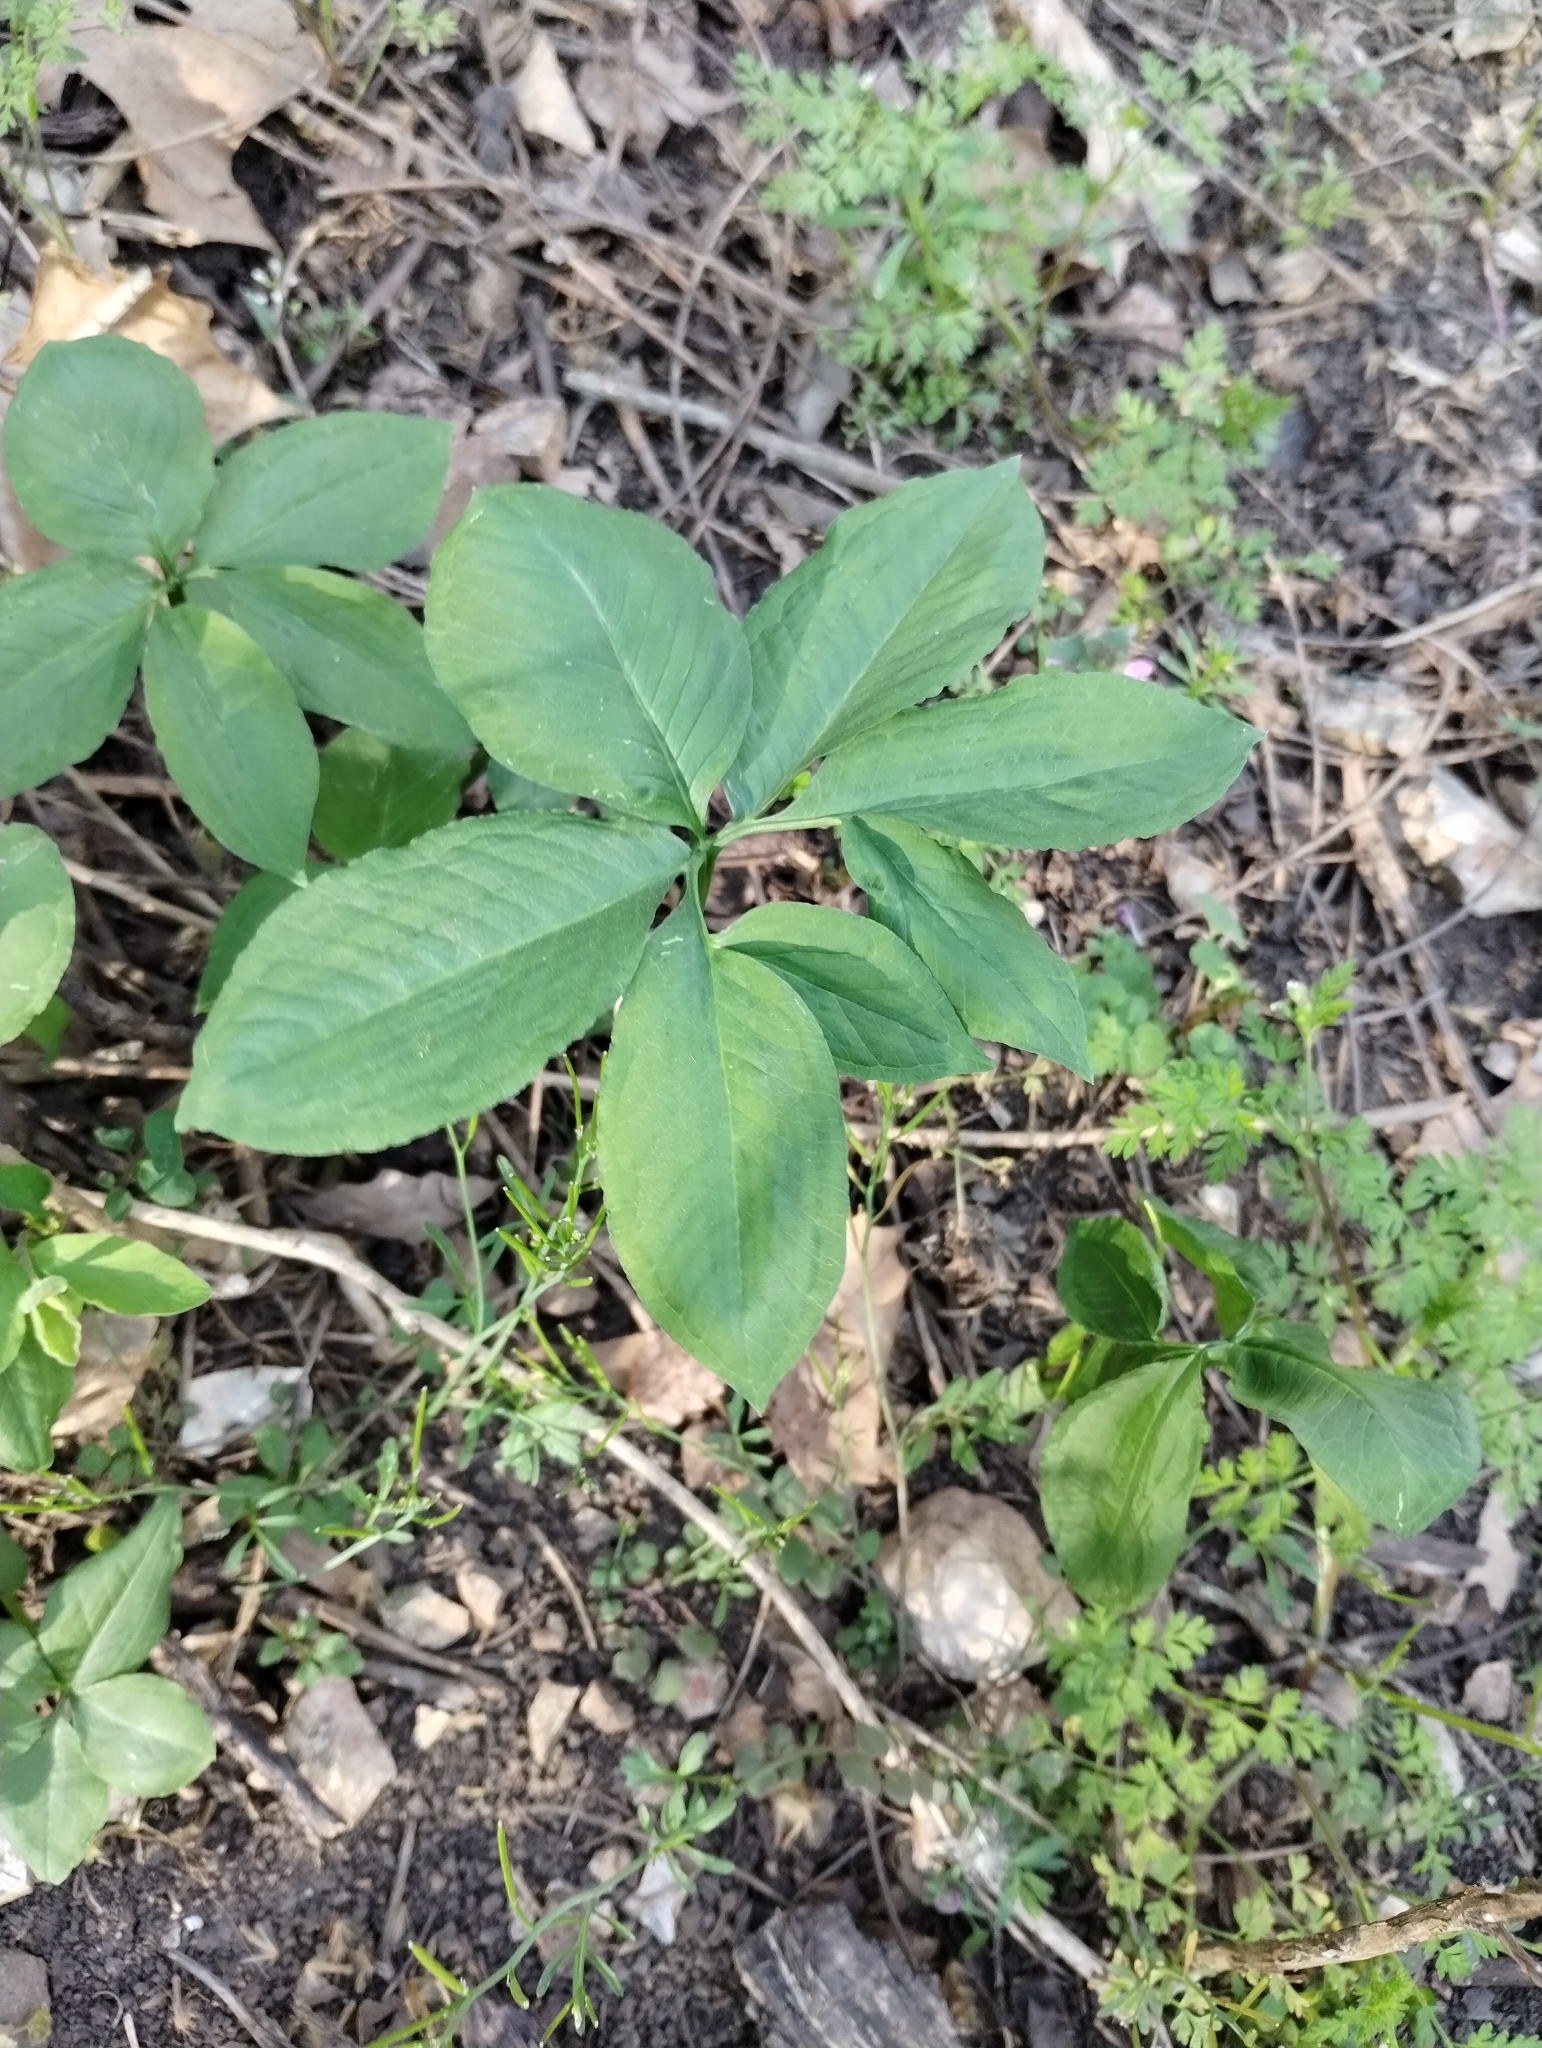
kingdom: Plantae
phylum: Tracheophyta
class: Liliopsida
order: Alismatales
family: Araceae
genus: Arisaema
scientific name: Arisaema dracontium
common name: Dragon-arum
